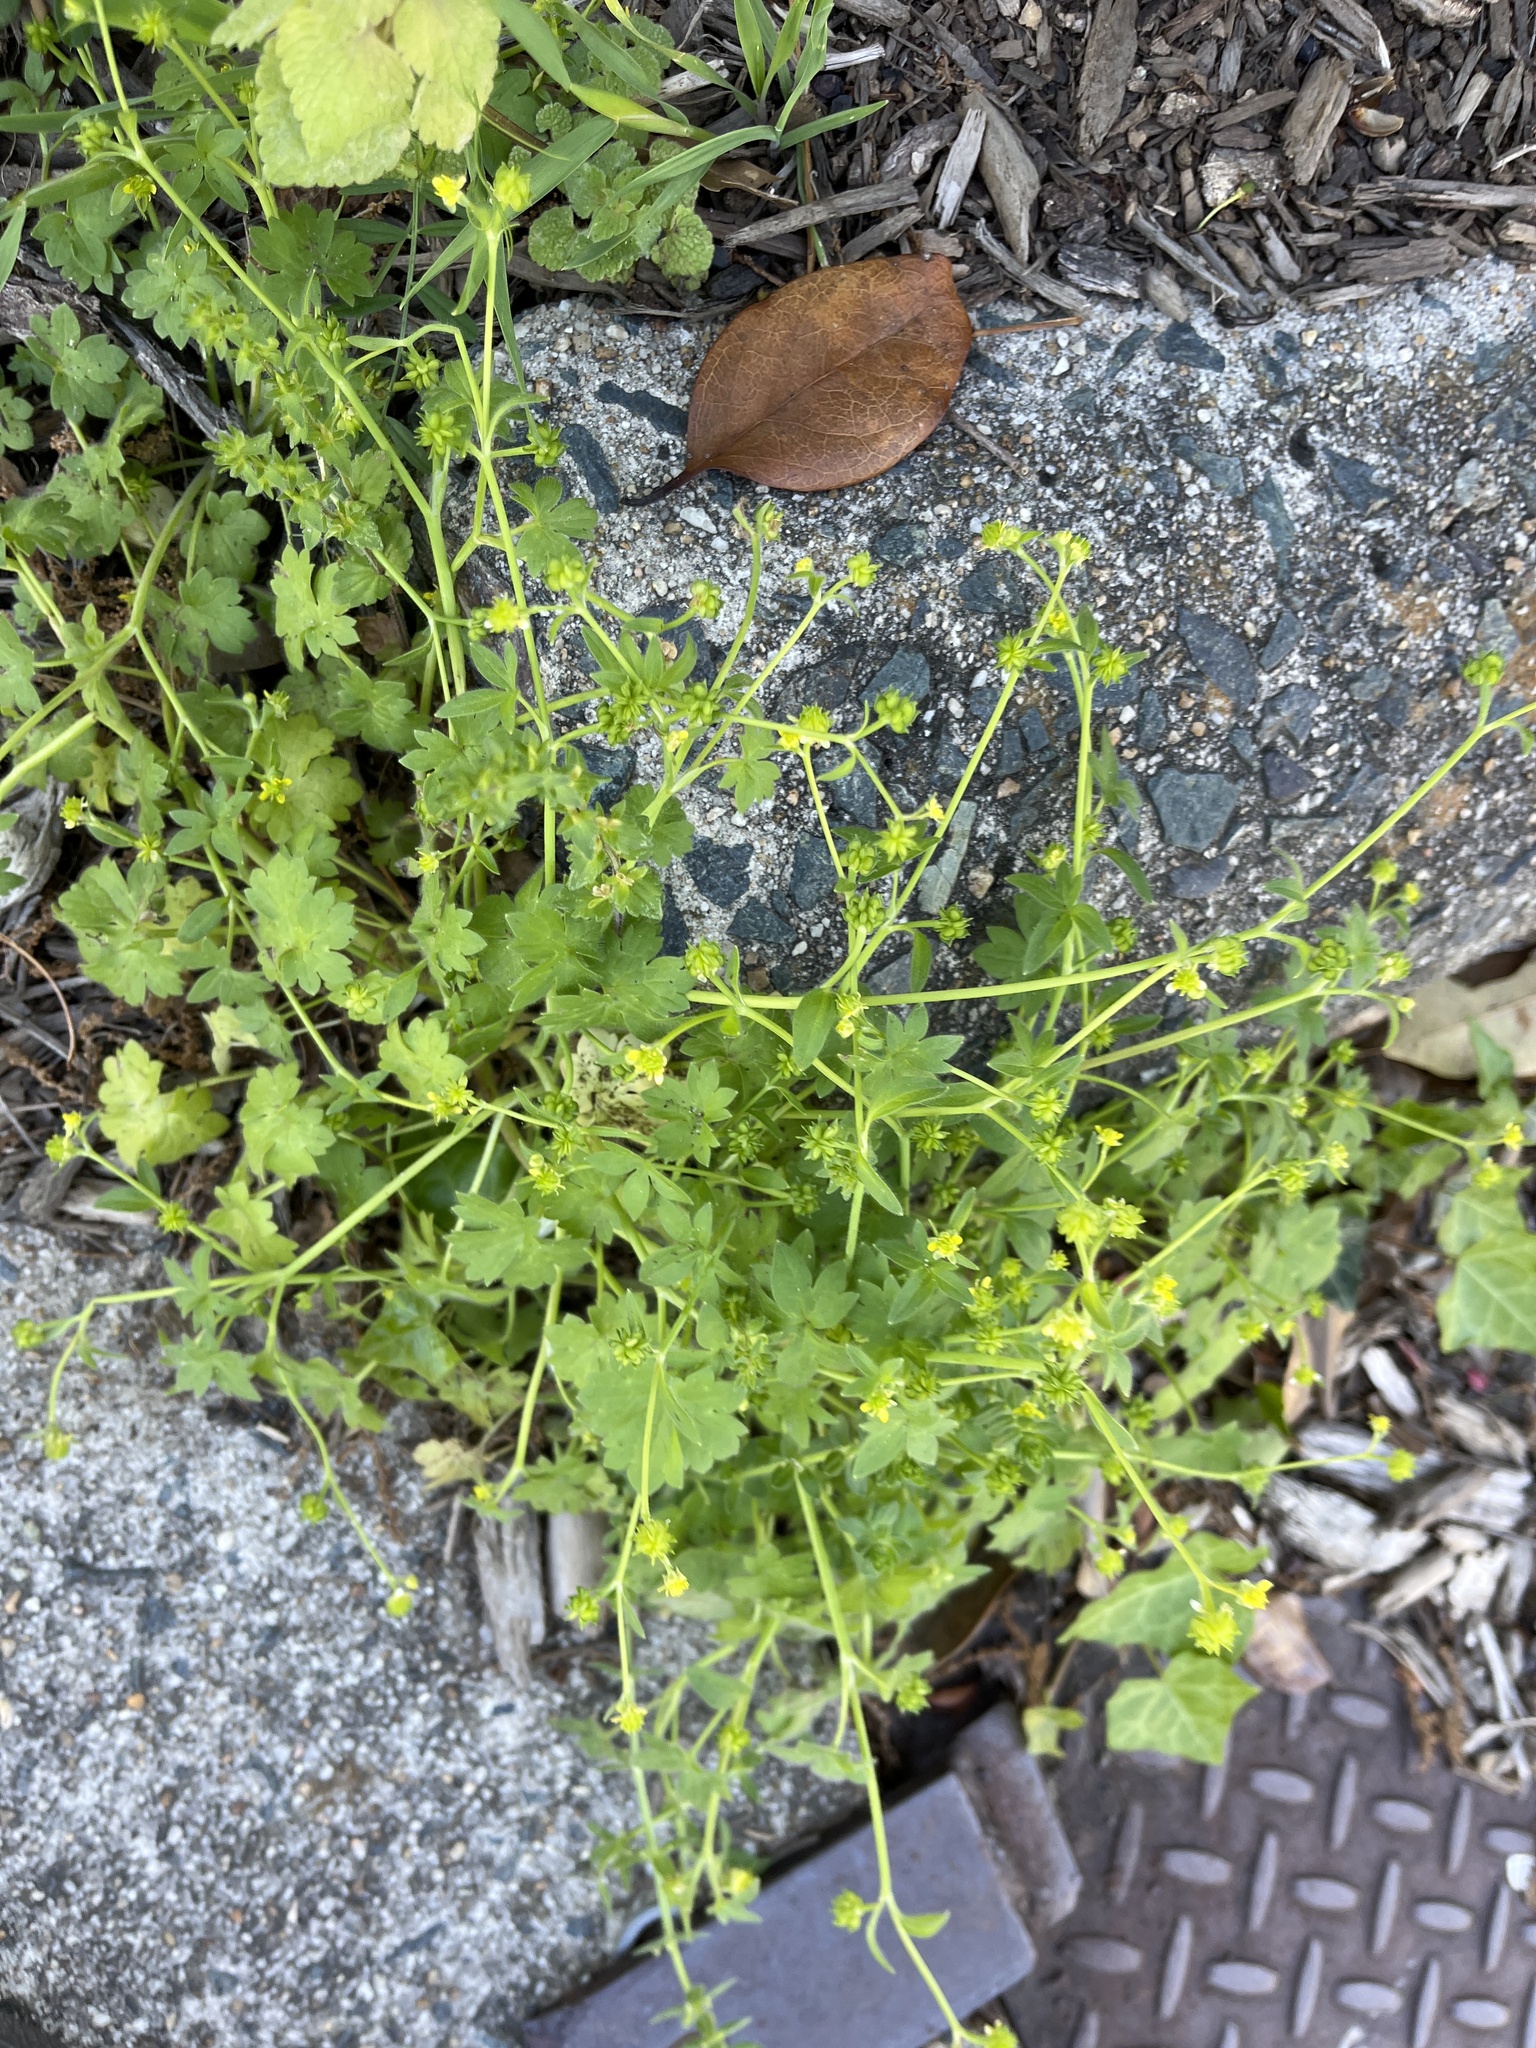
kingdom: Plantae
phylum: Tracheophyta
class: Magnoliopsida
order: Ranunculales
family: Ranunculaceae
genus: Ranunculus
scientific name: Ranunculus parviflorus
